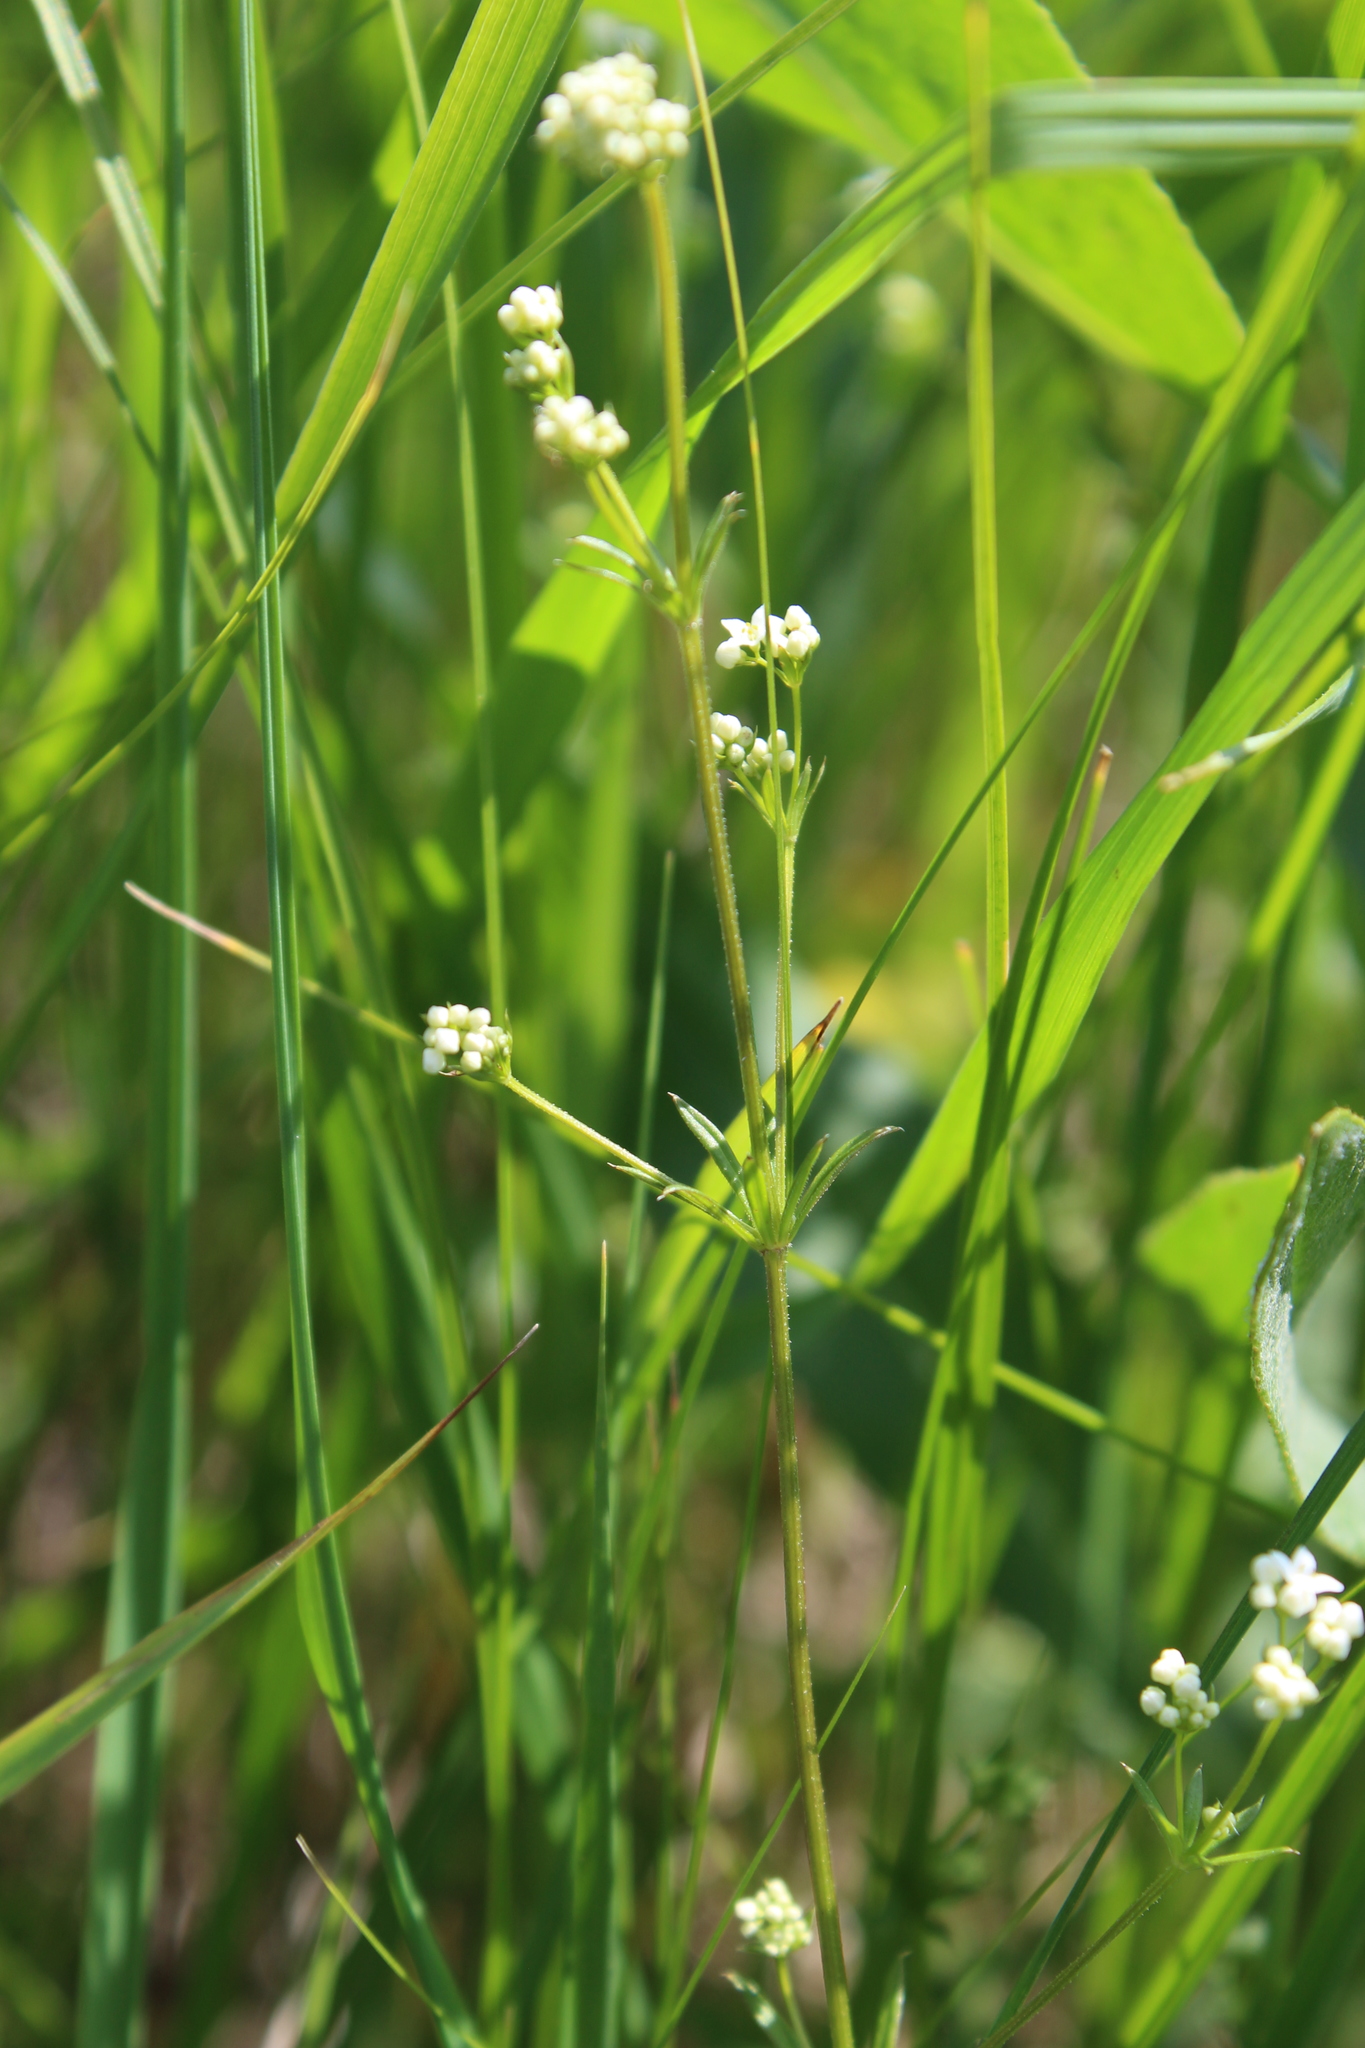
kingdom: Plantae
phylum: Tracheophyta
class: Magnoliopsida
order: Gentianales
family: Rubiaceae
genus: Galium
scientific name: Galium rivale
